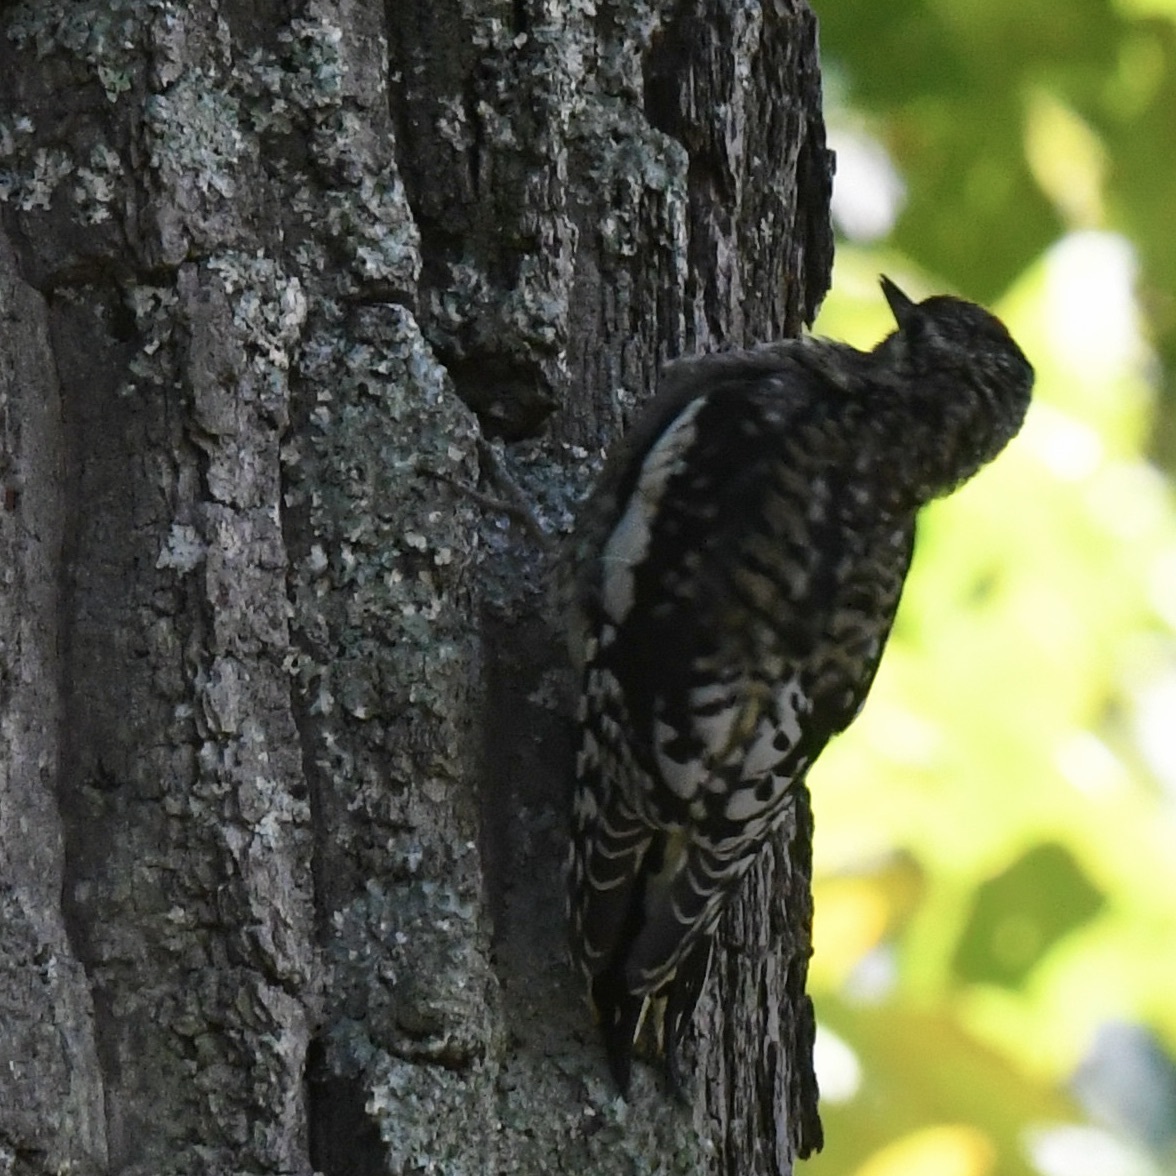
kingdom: Animalia
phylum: Chordata
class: Aves
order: Piciformes
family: Picidae
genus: Sphyrapicus
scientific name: Sphyrapicus varius
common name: Yellow-bellied sapsucker
